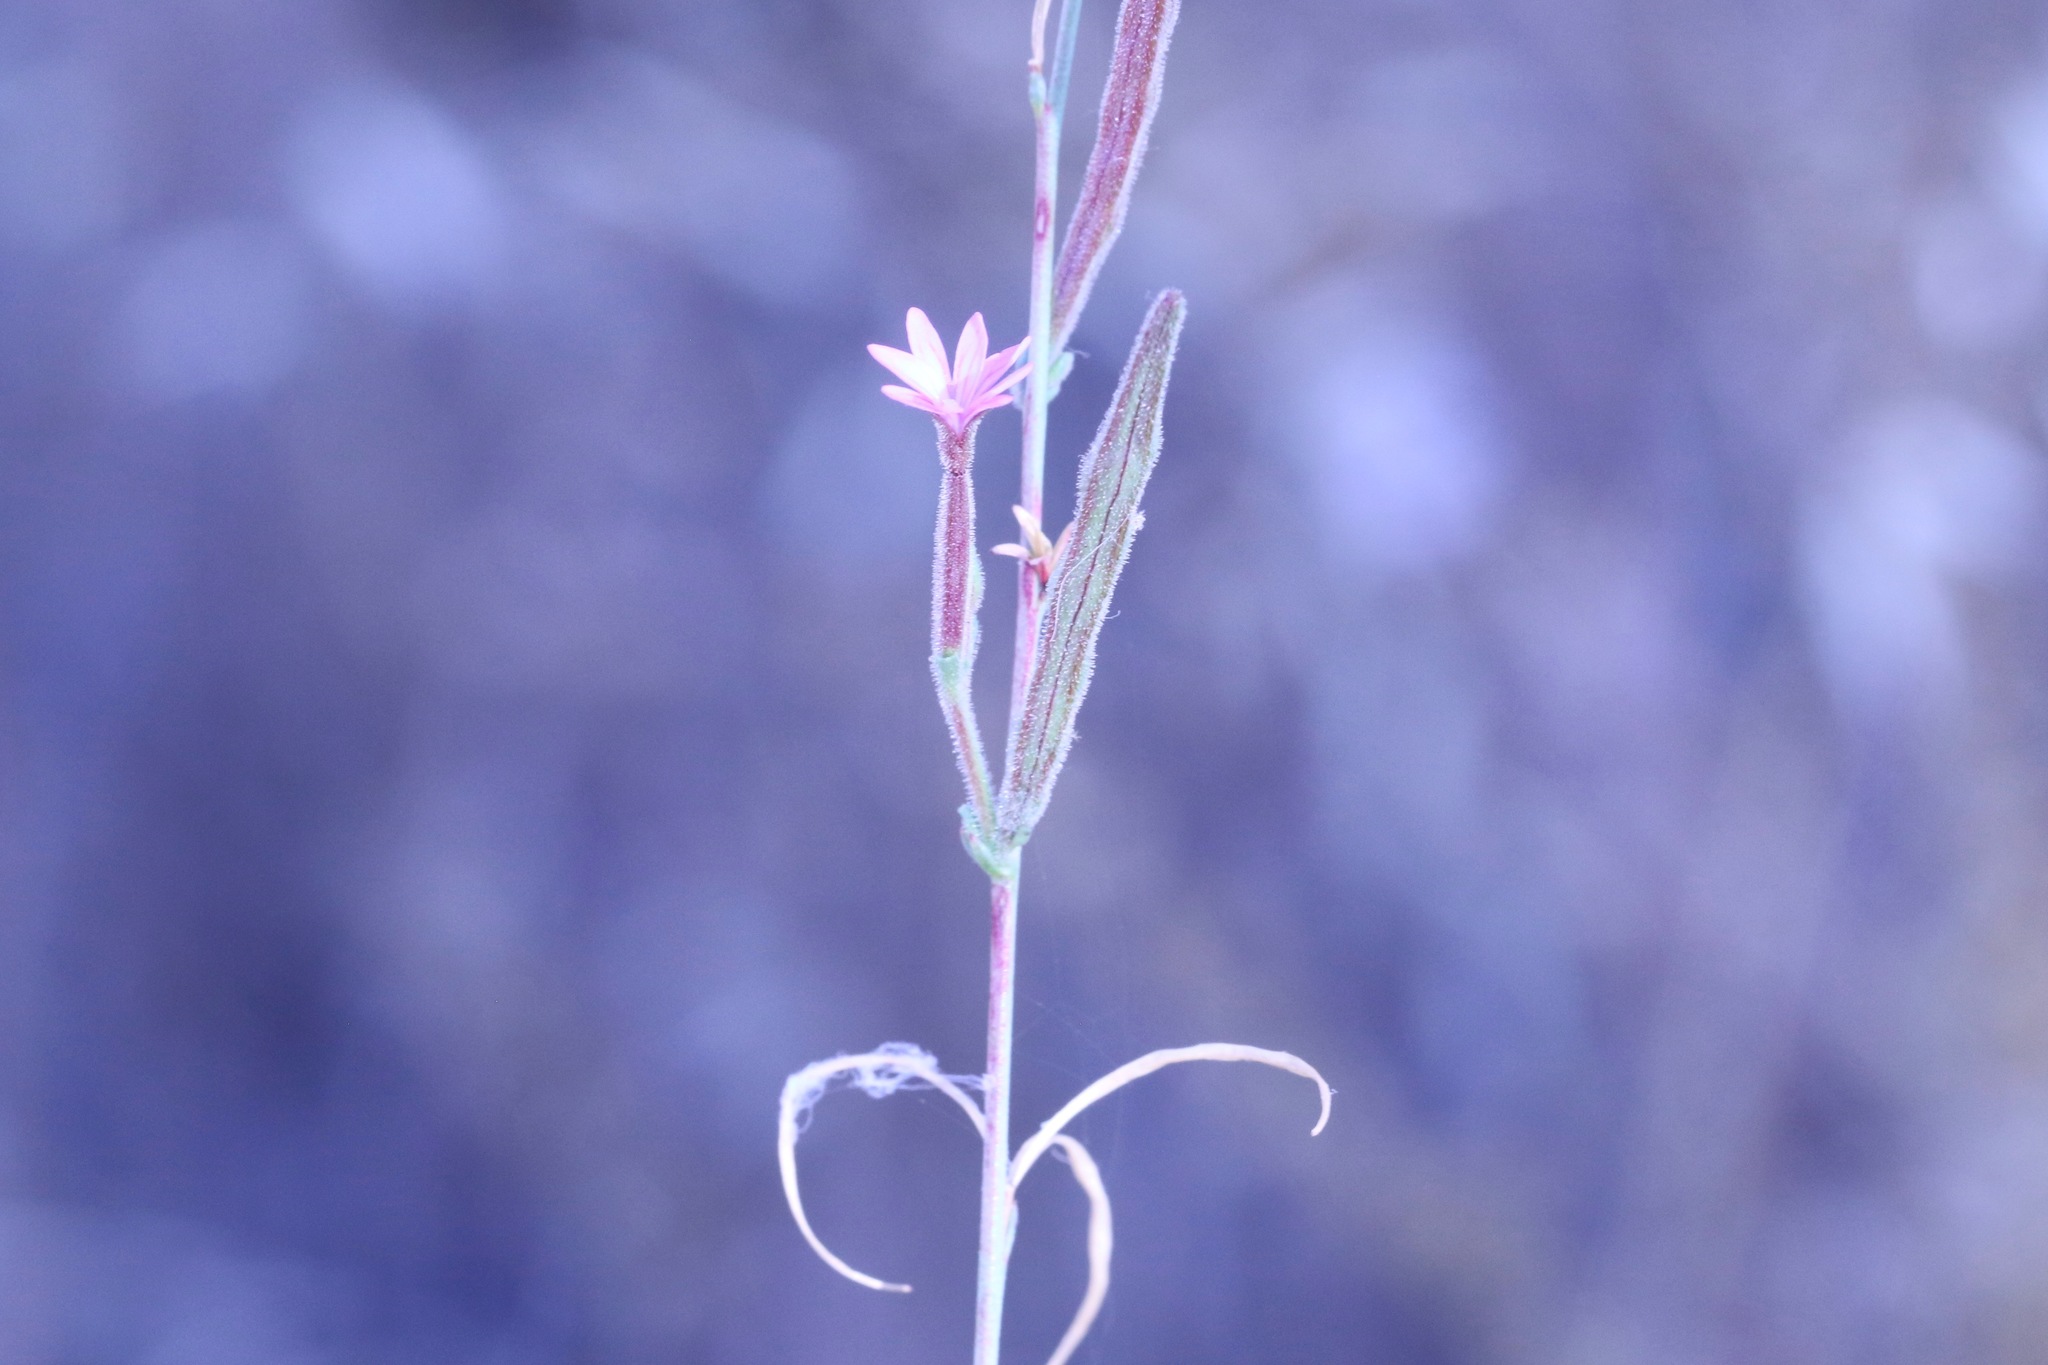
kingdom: Plantae
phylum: Tracheophyta
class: Magnoliopsida
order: Myrtales
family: Onagraceae
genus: Epilobium
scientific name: Epilobium brachycarpum
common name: Annual willowherb
